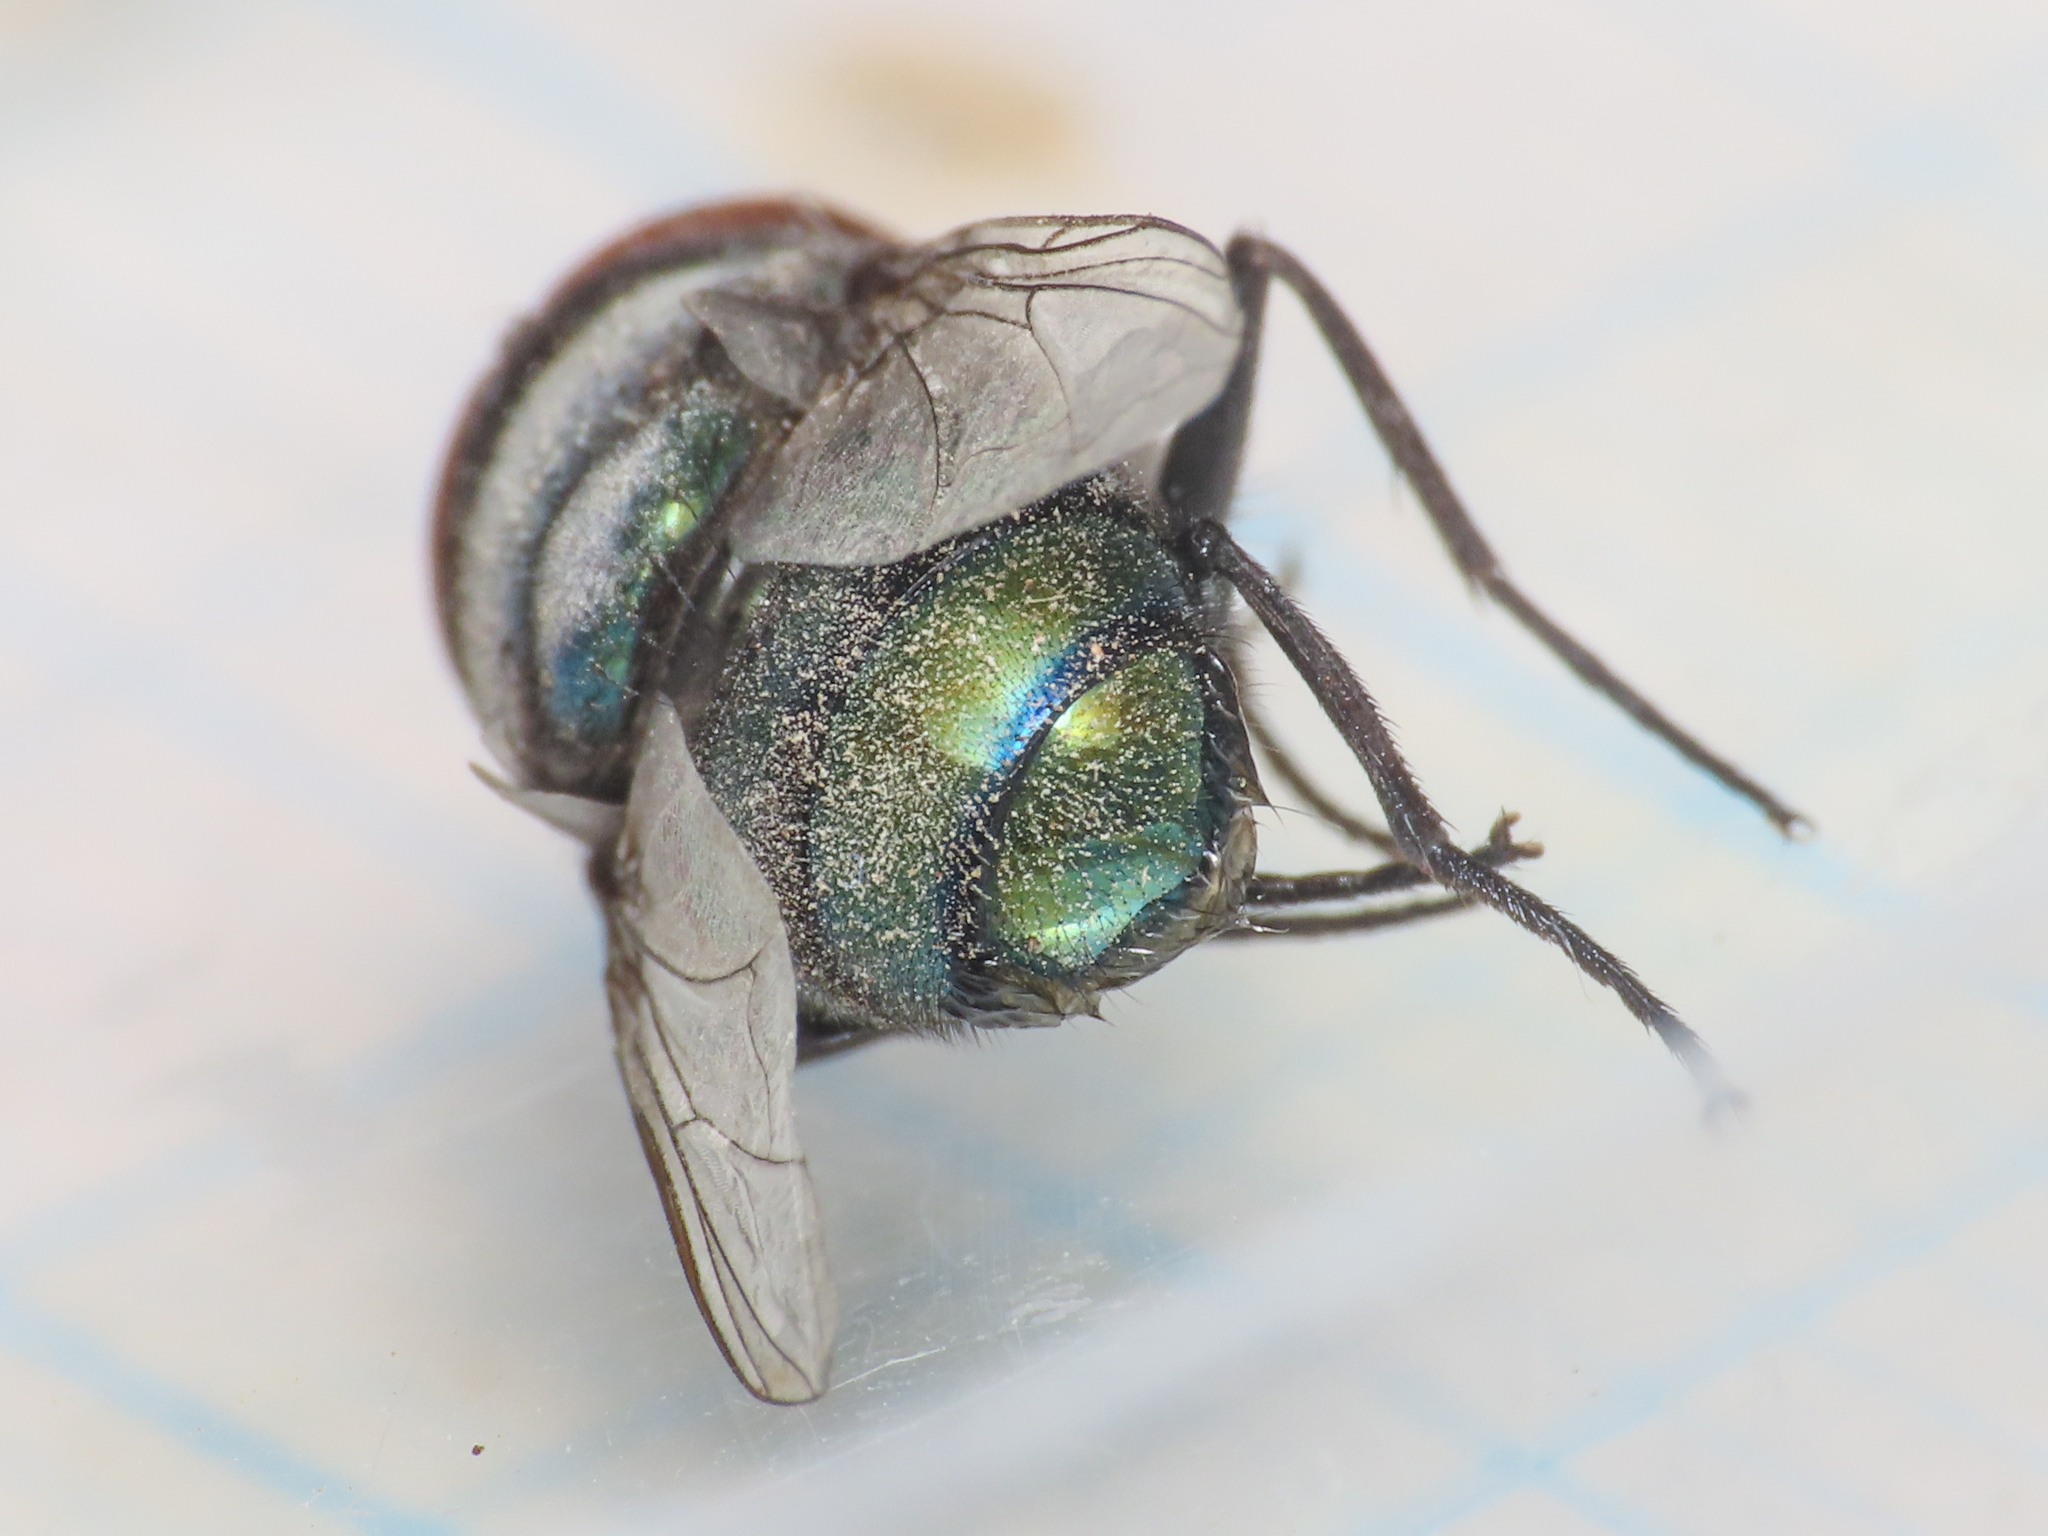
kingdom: Animalia
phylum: Arthropoda
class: Insecta
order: Diptera
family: Calliphoridae
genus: Chrysomya
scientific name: Chrysomya megacephala
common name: Blow fly
